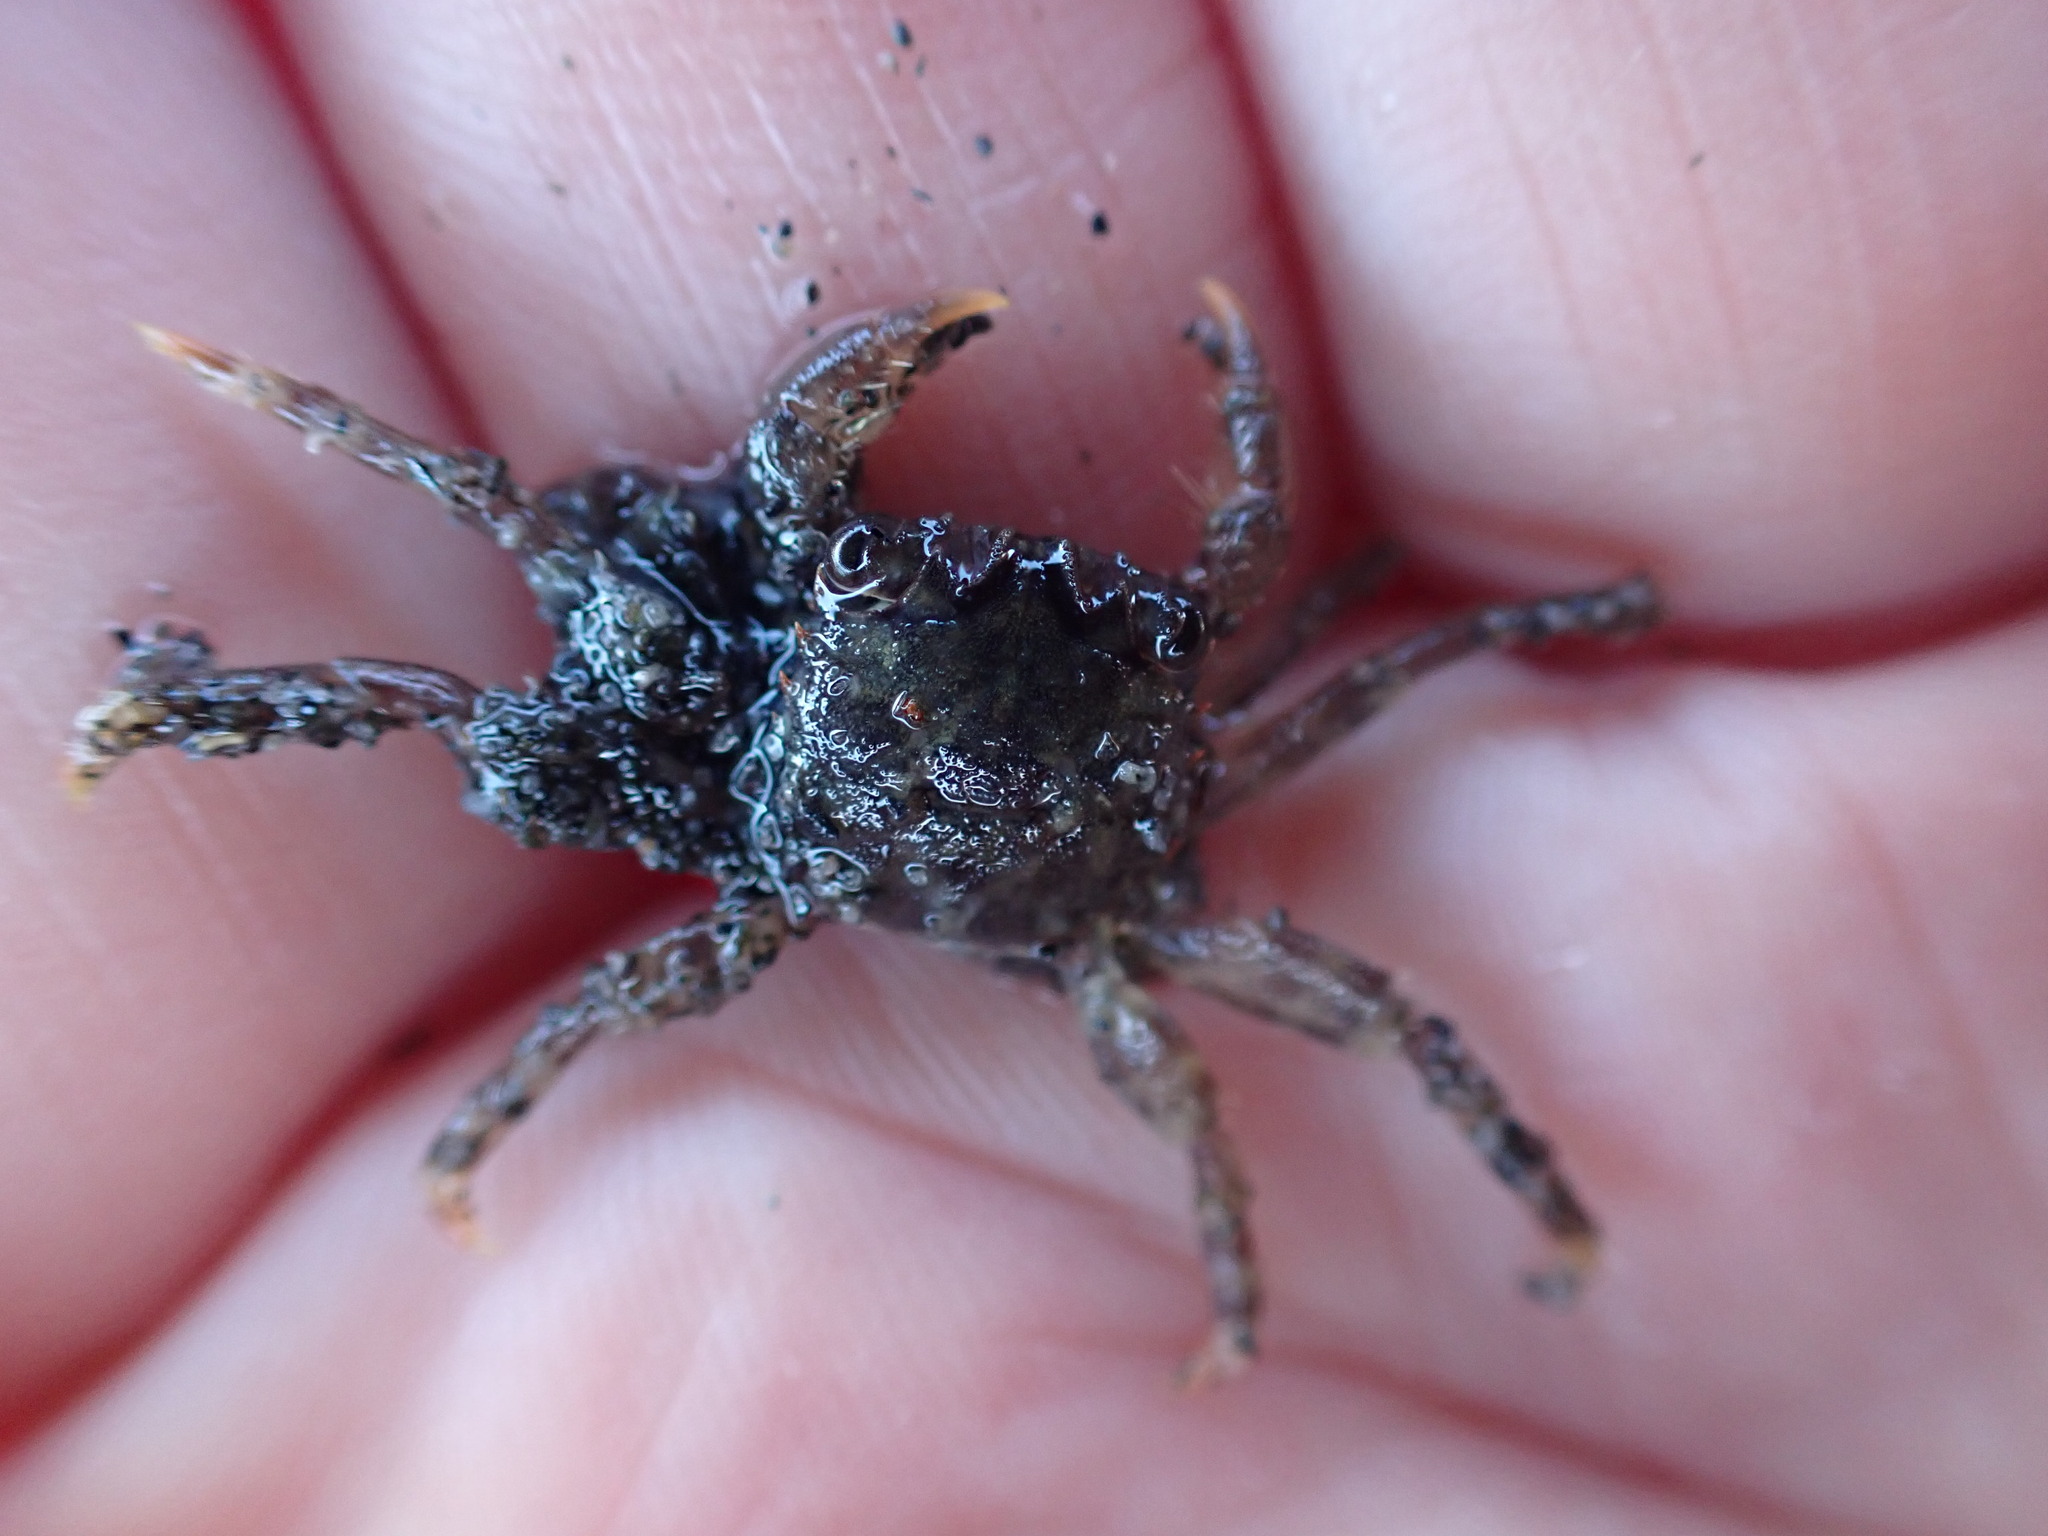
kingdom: Animalia
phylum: Arthropoda
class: Malacostraca
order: Decapoda
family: Plagusiidae
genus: Guinusia
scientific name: Guinusia chabrus
